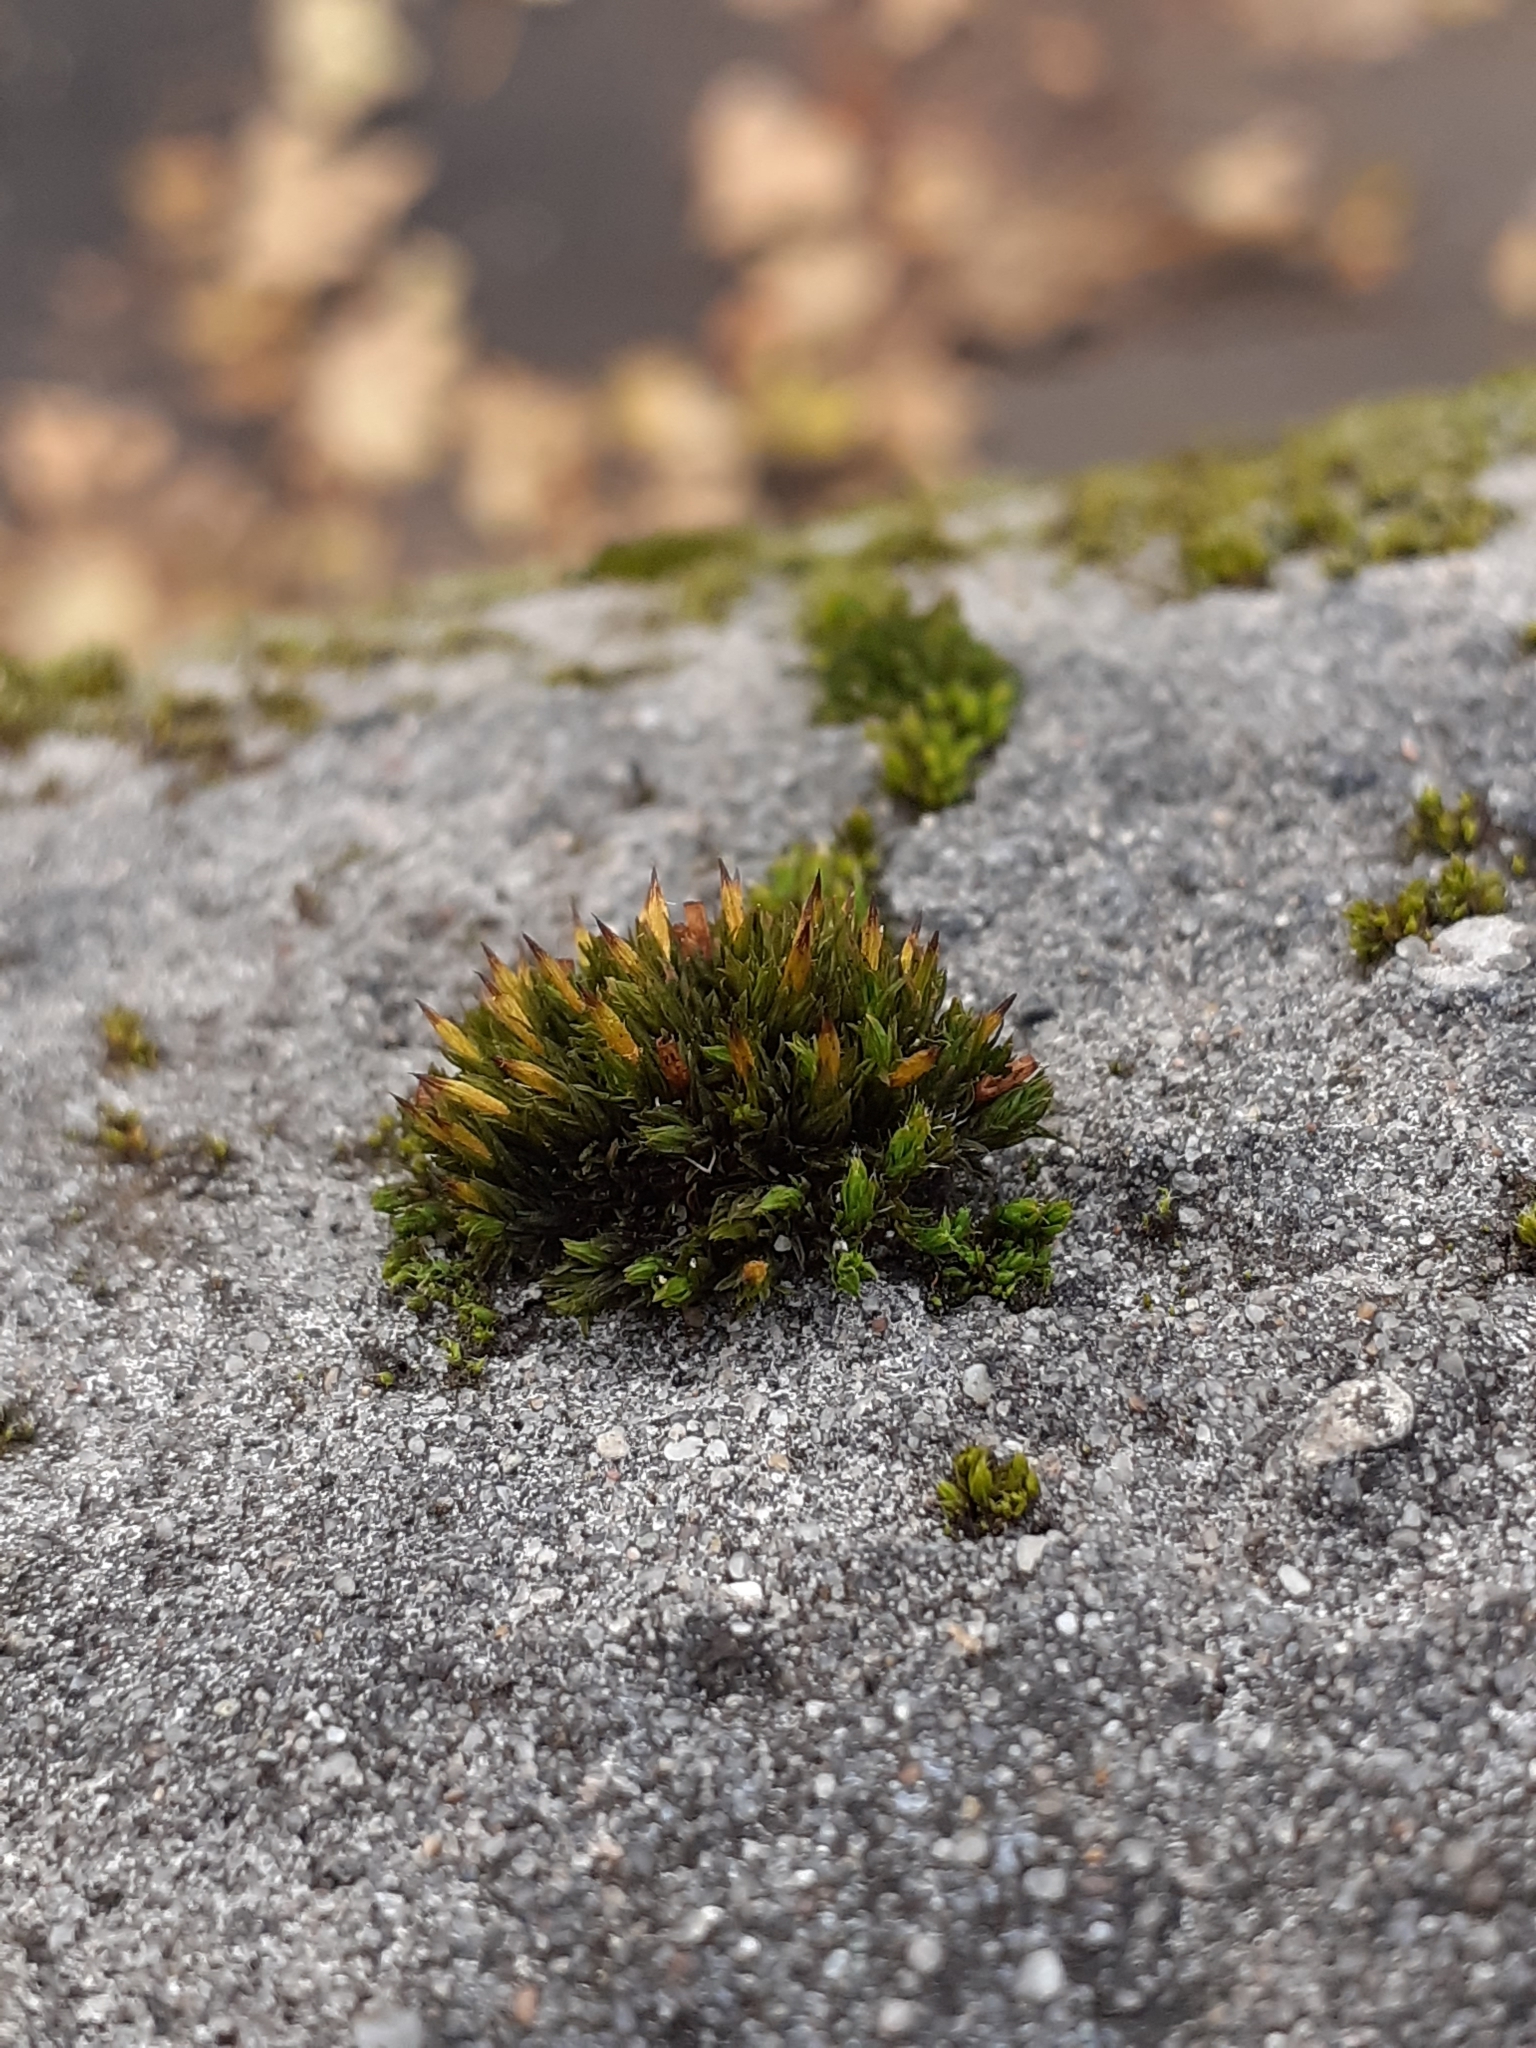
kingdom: Plantae
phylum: Bryophyta
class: Bryopsida
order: Orthotrichales
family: Orthotrichaceae
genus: Orthotrichum
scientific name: Orthotrichum anomalum
